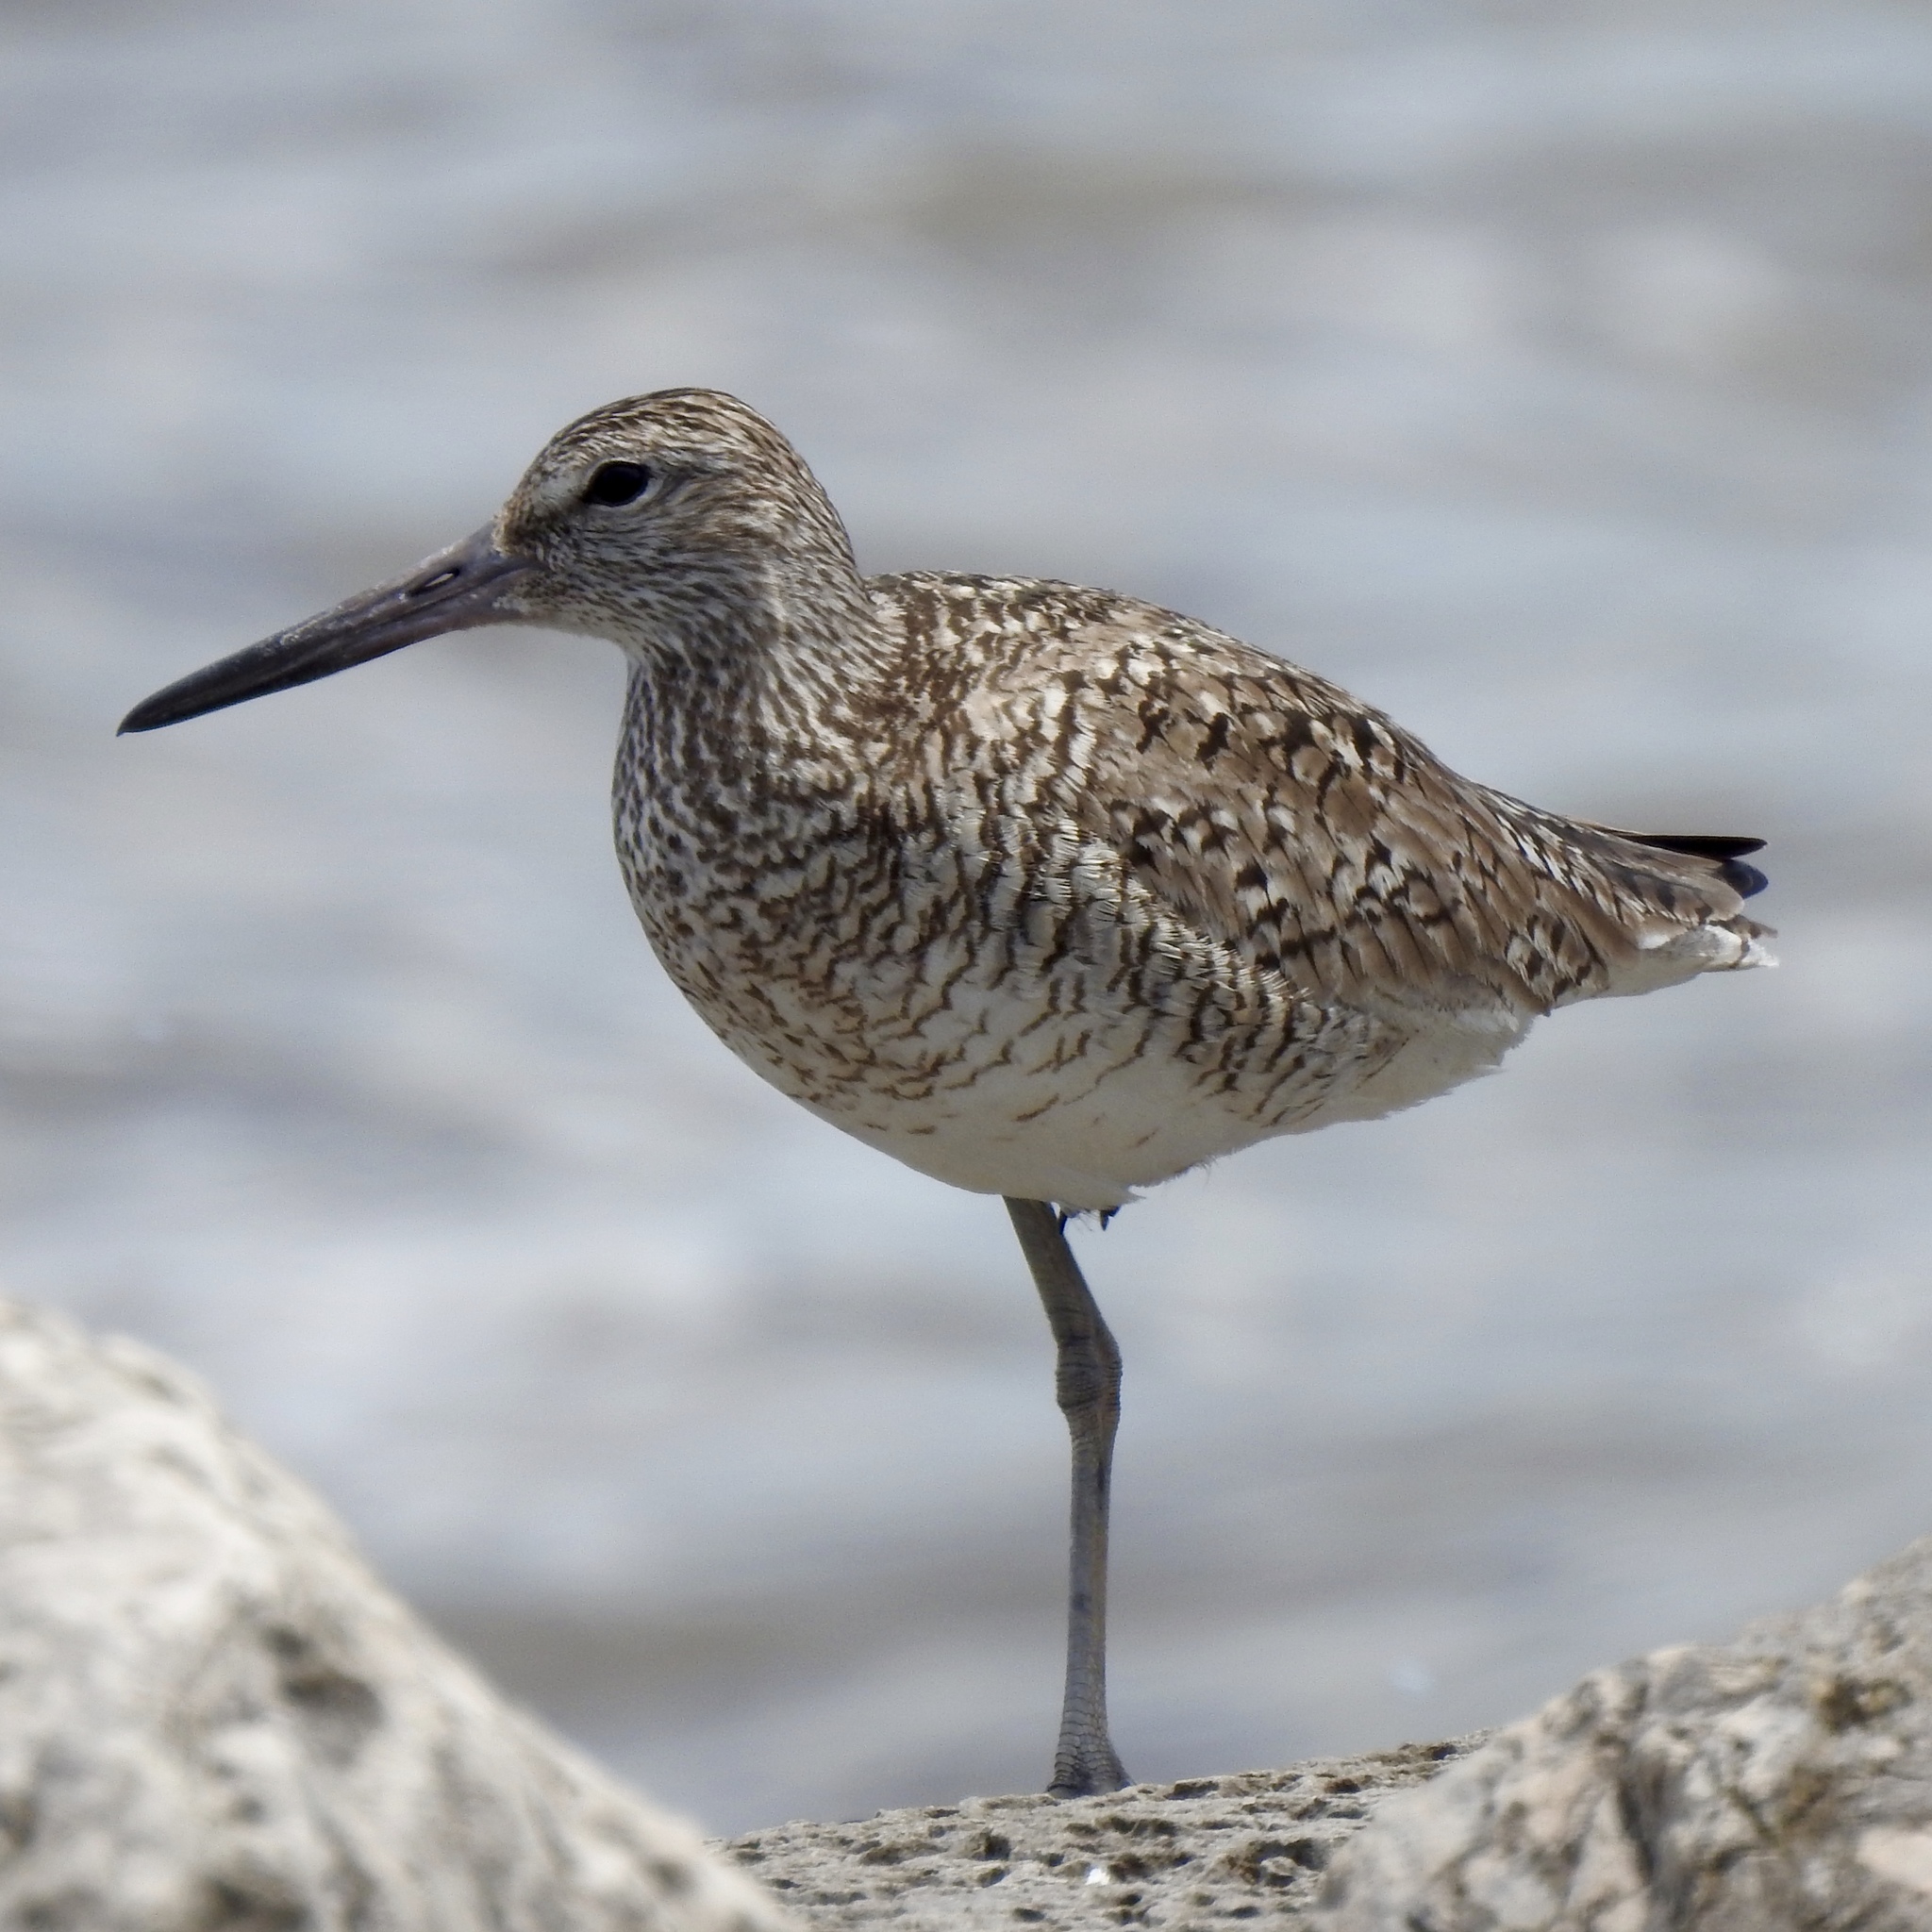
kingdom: Animalia
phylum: Chordata
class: Aves
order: Charadriiformes
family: Scolopacidae
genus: Tringa
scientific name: Tringa semipalmata
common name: Willet
